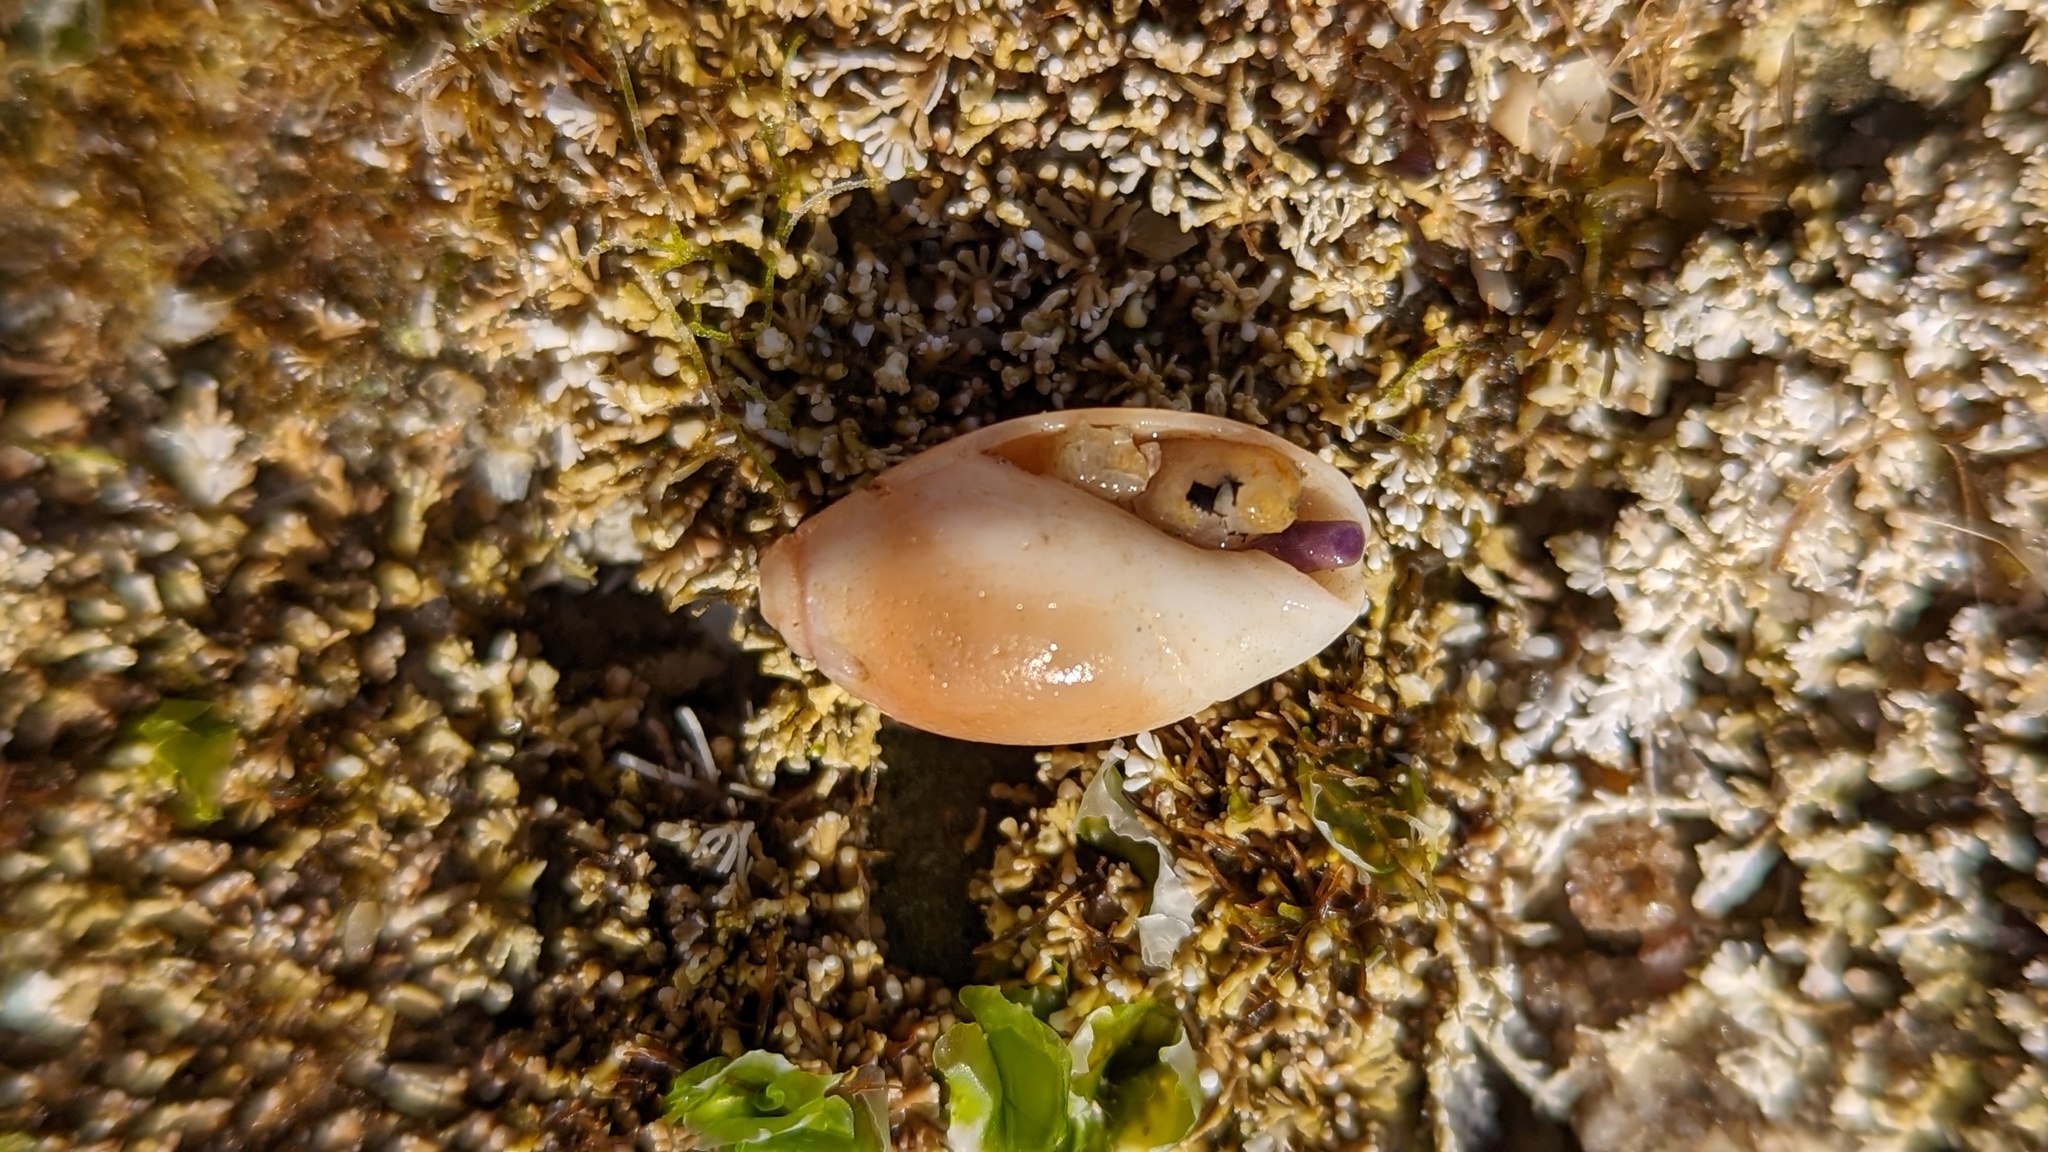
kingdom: Animalia
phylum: Mollusca
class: Gastropoda
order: Neogastropoda
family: Olividae
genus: Callianax
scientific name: Callianax biplicata
